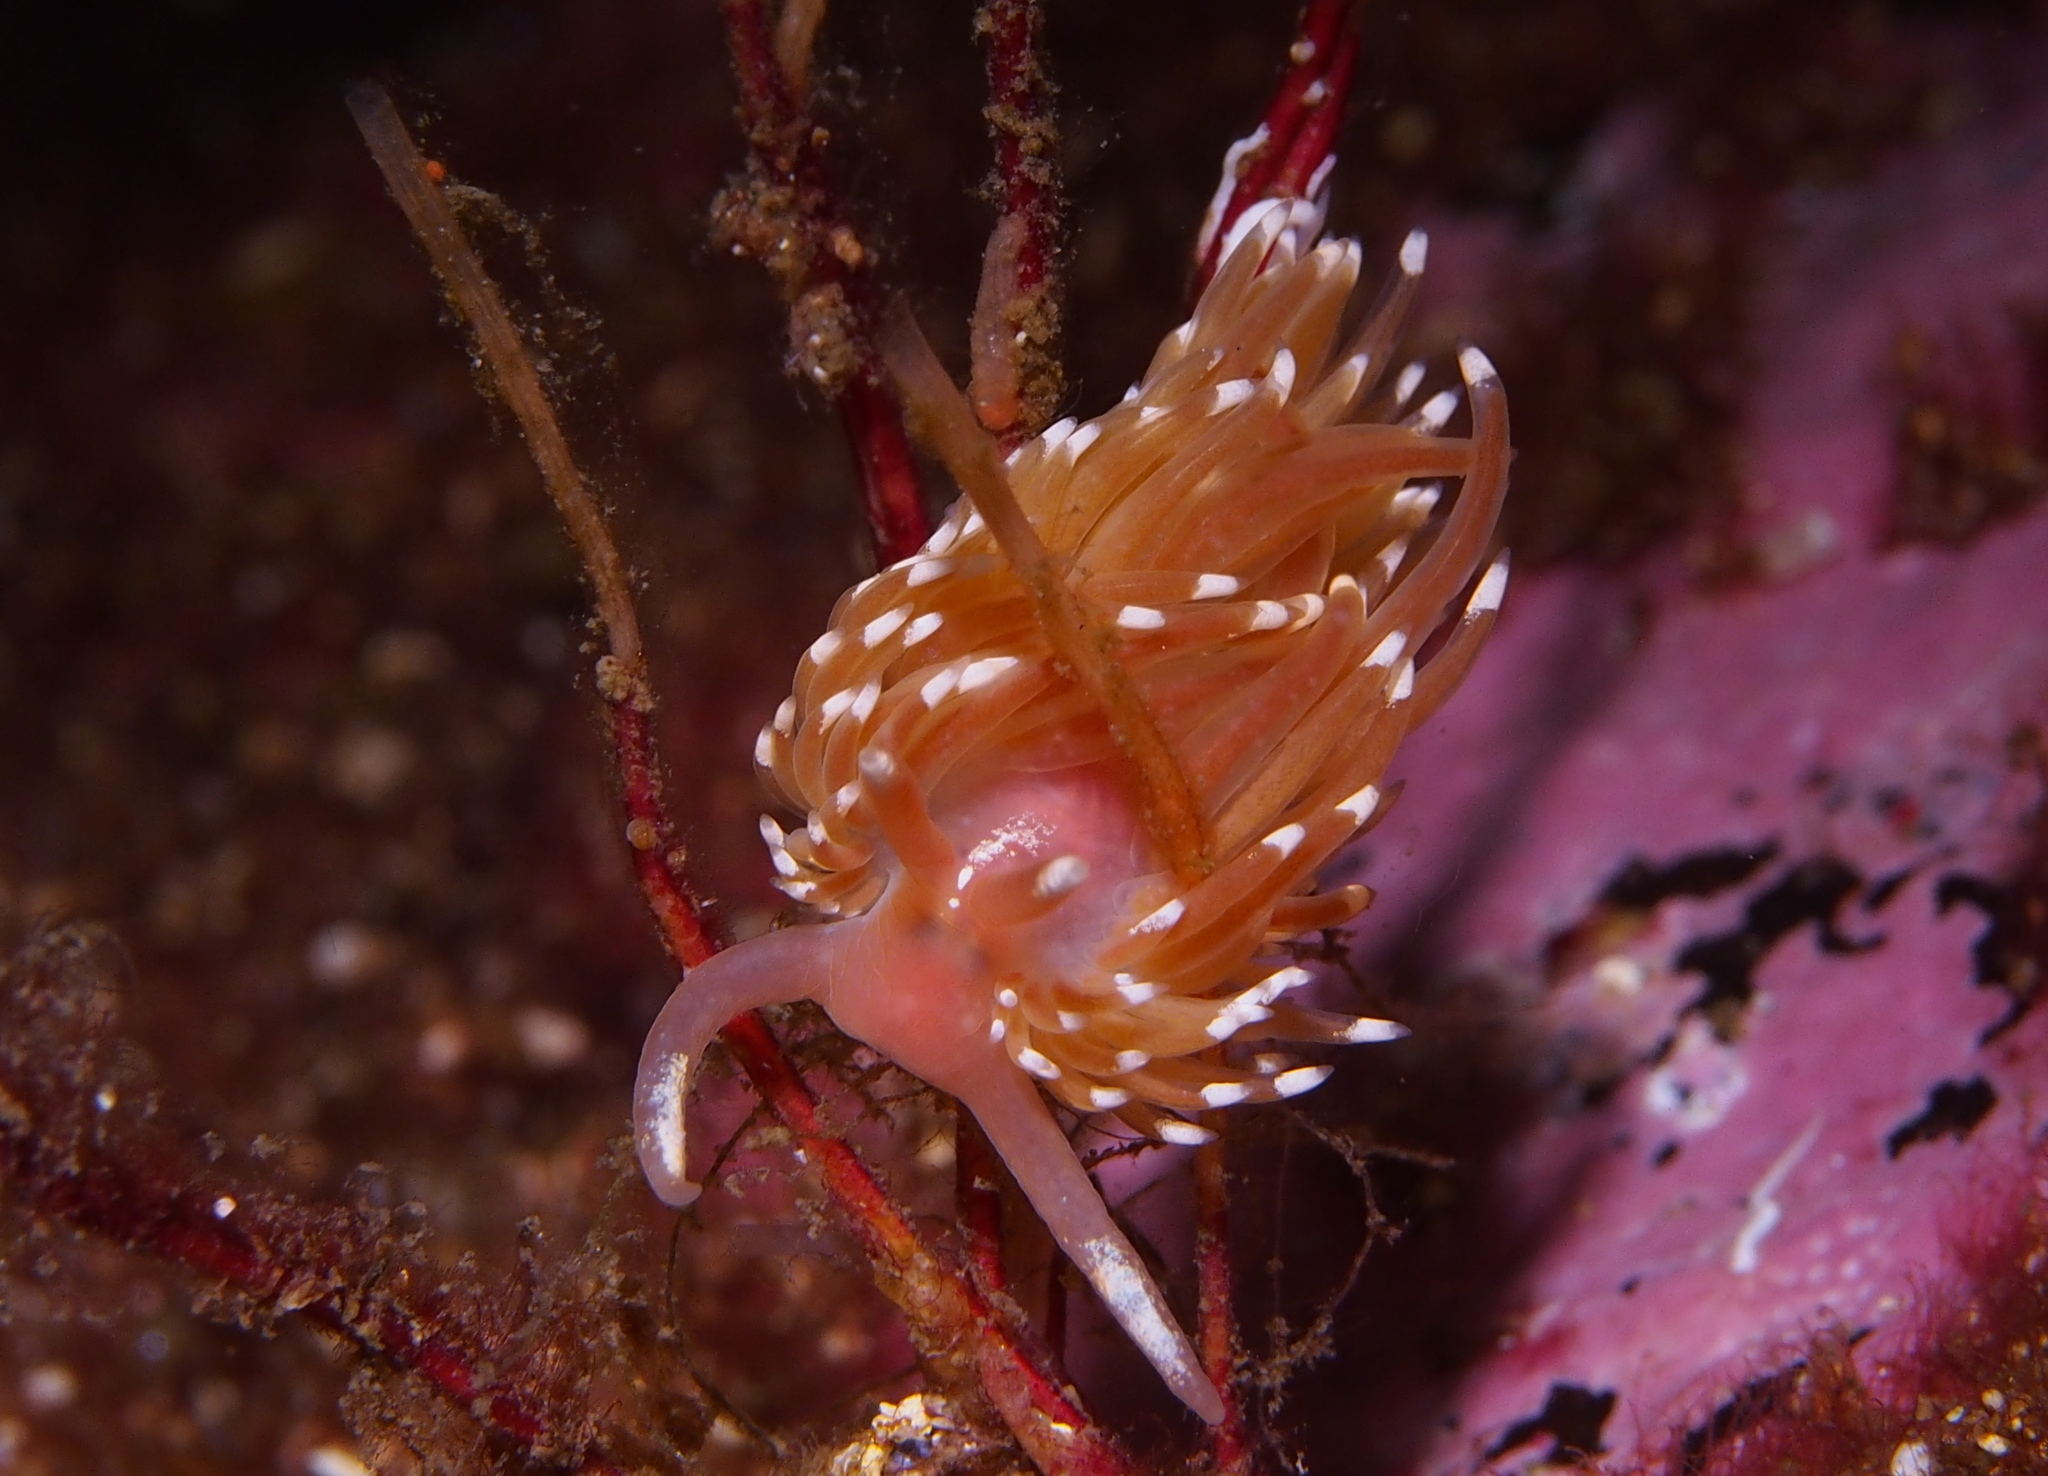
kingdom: Animalia
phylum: Mollusca
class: Gastropoda
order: Nudibranchia
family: Facelinidae
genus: Facelina
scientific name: Facelina bostoniensis
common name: Boston facelina
